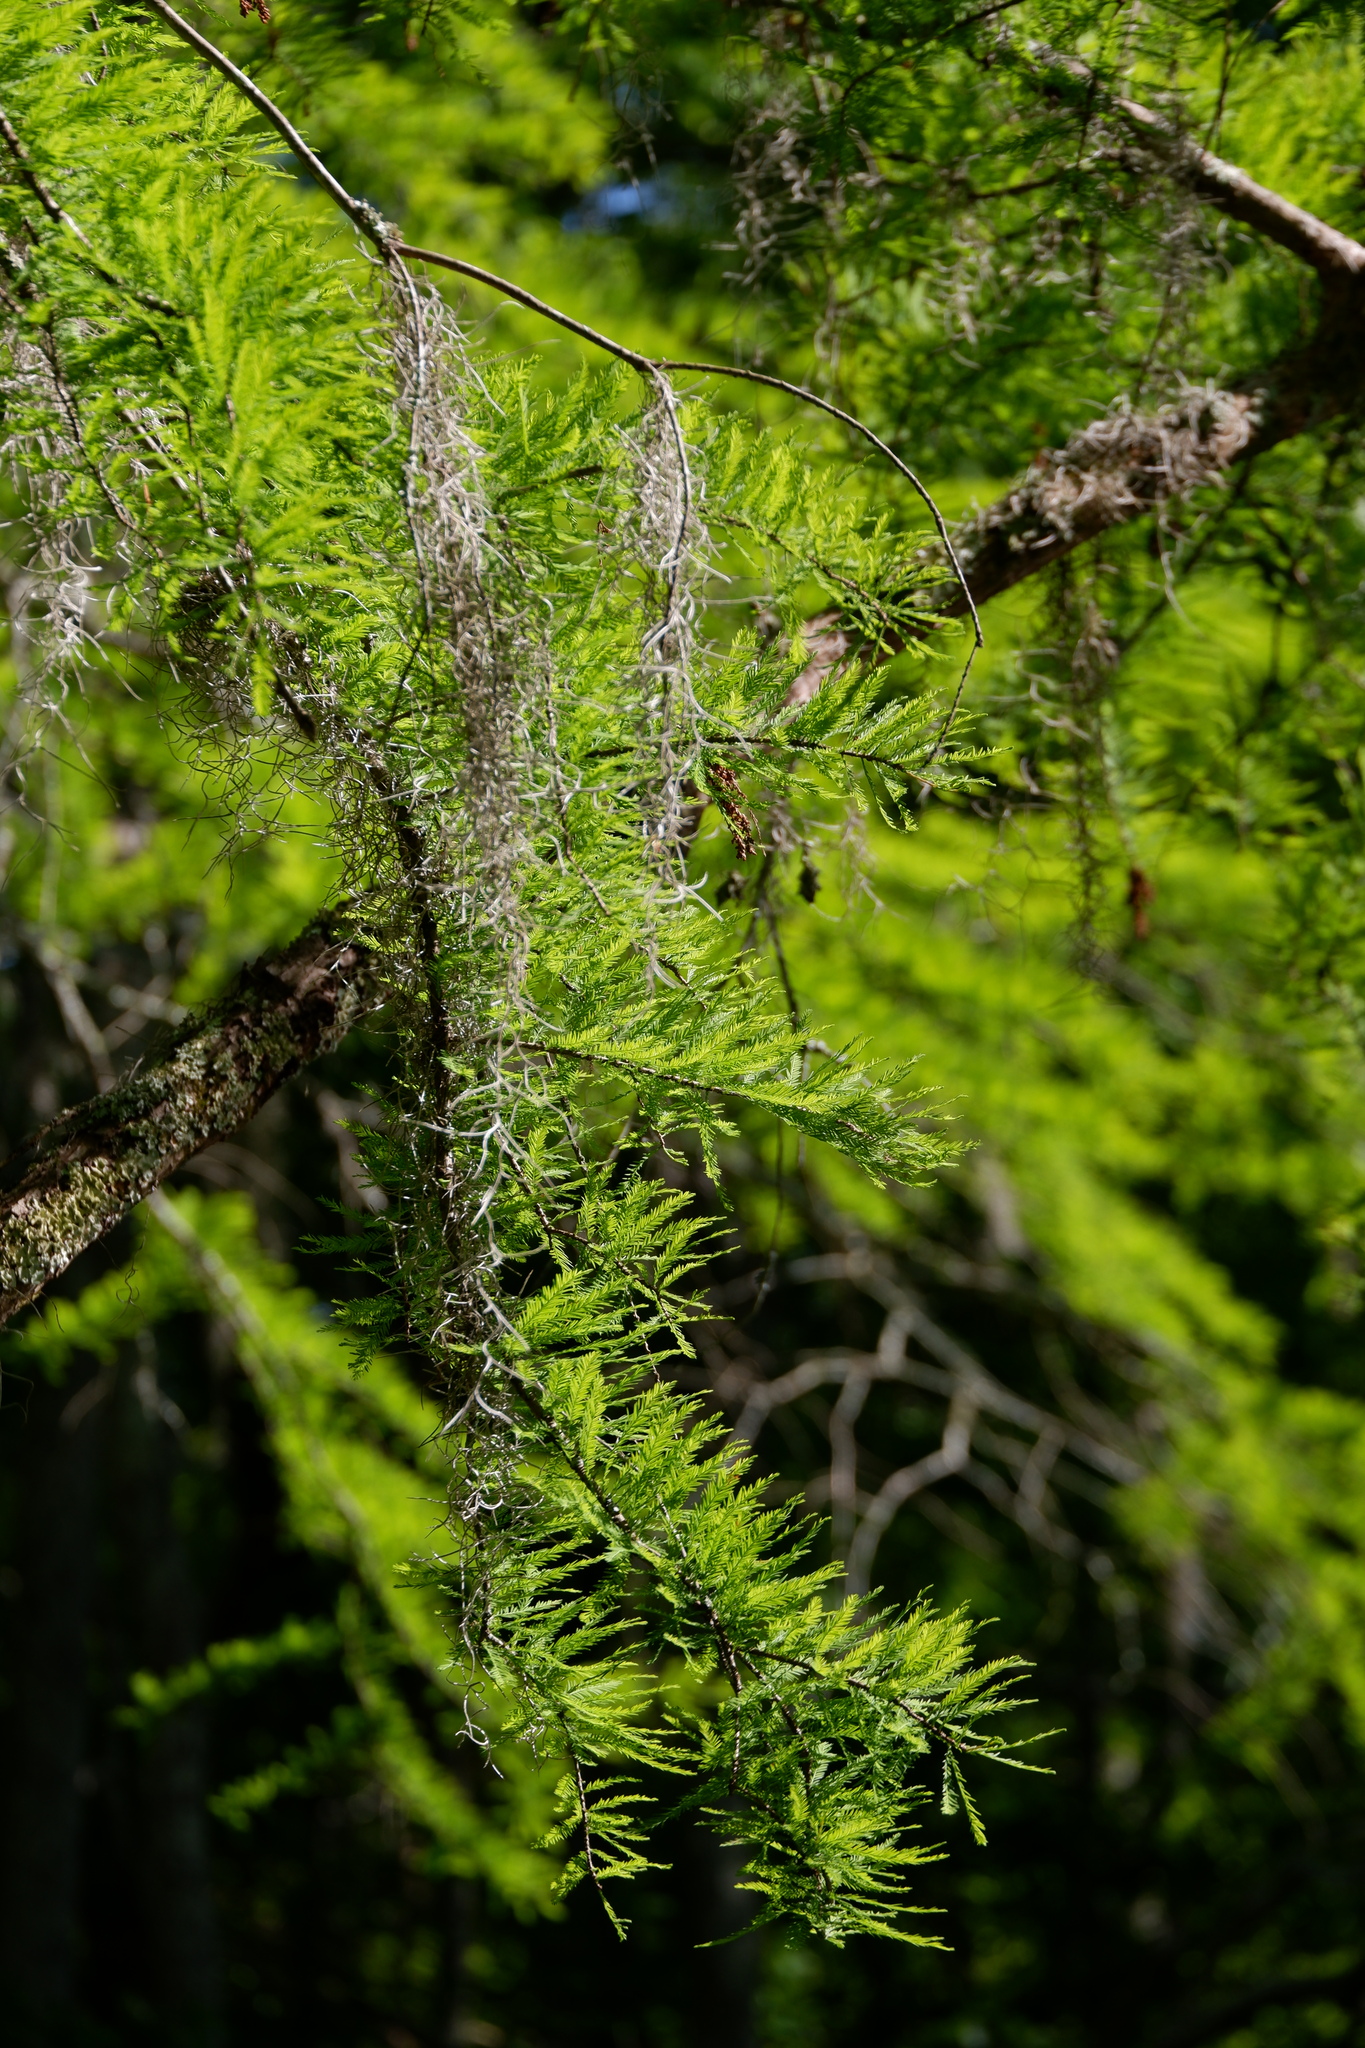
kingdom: Plantae
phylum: Tracheophyta
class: Pinopsida
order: Pinales
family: Cupressaceae
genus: Taxodium
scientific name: Taxodium distichum
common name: Bald cypress
